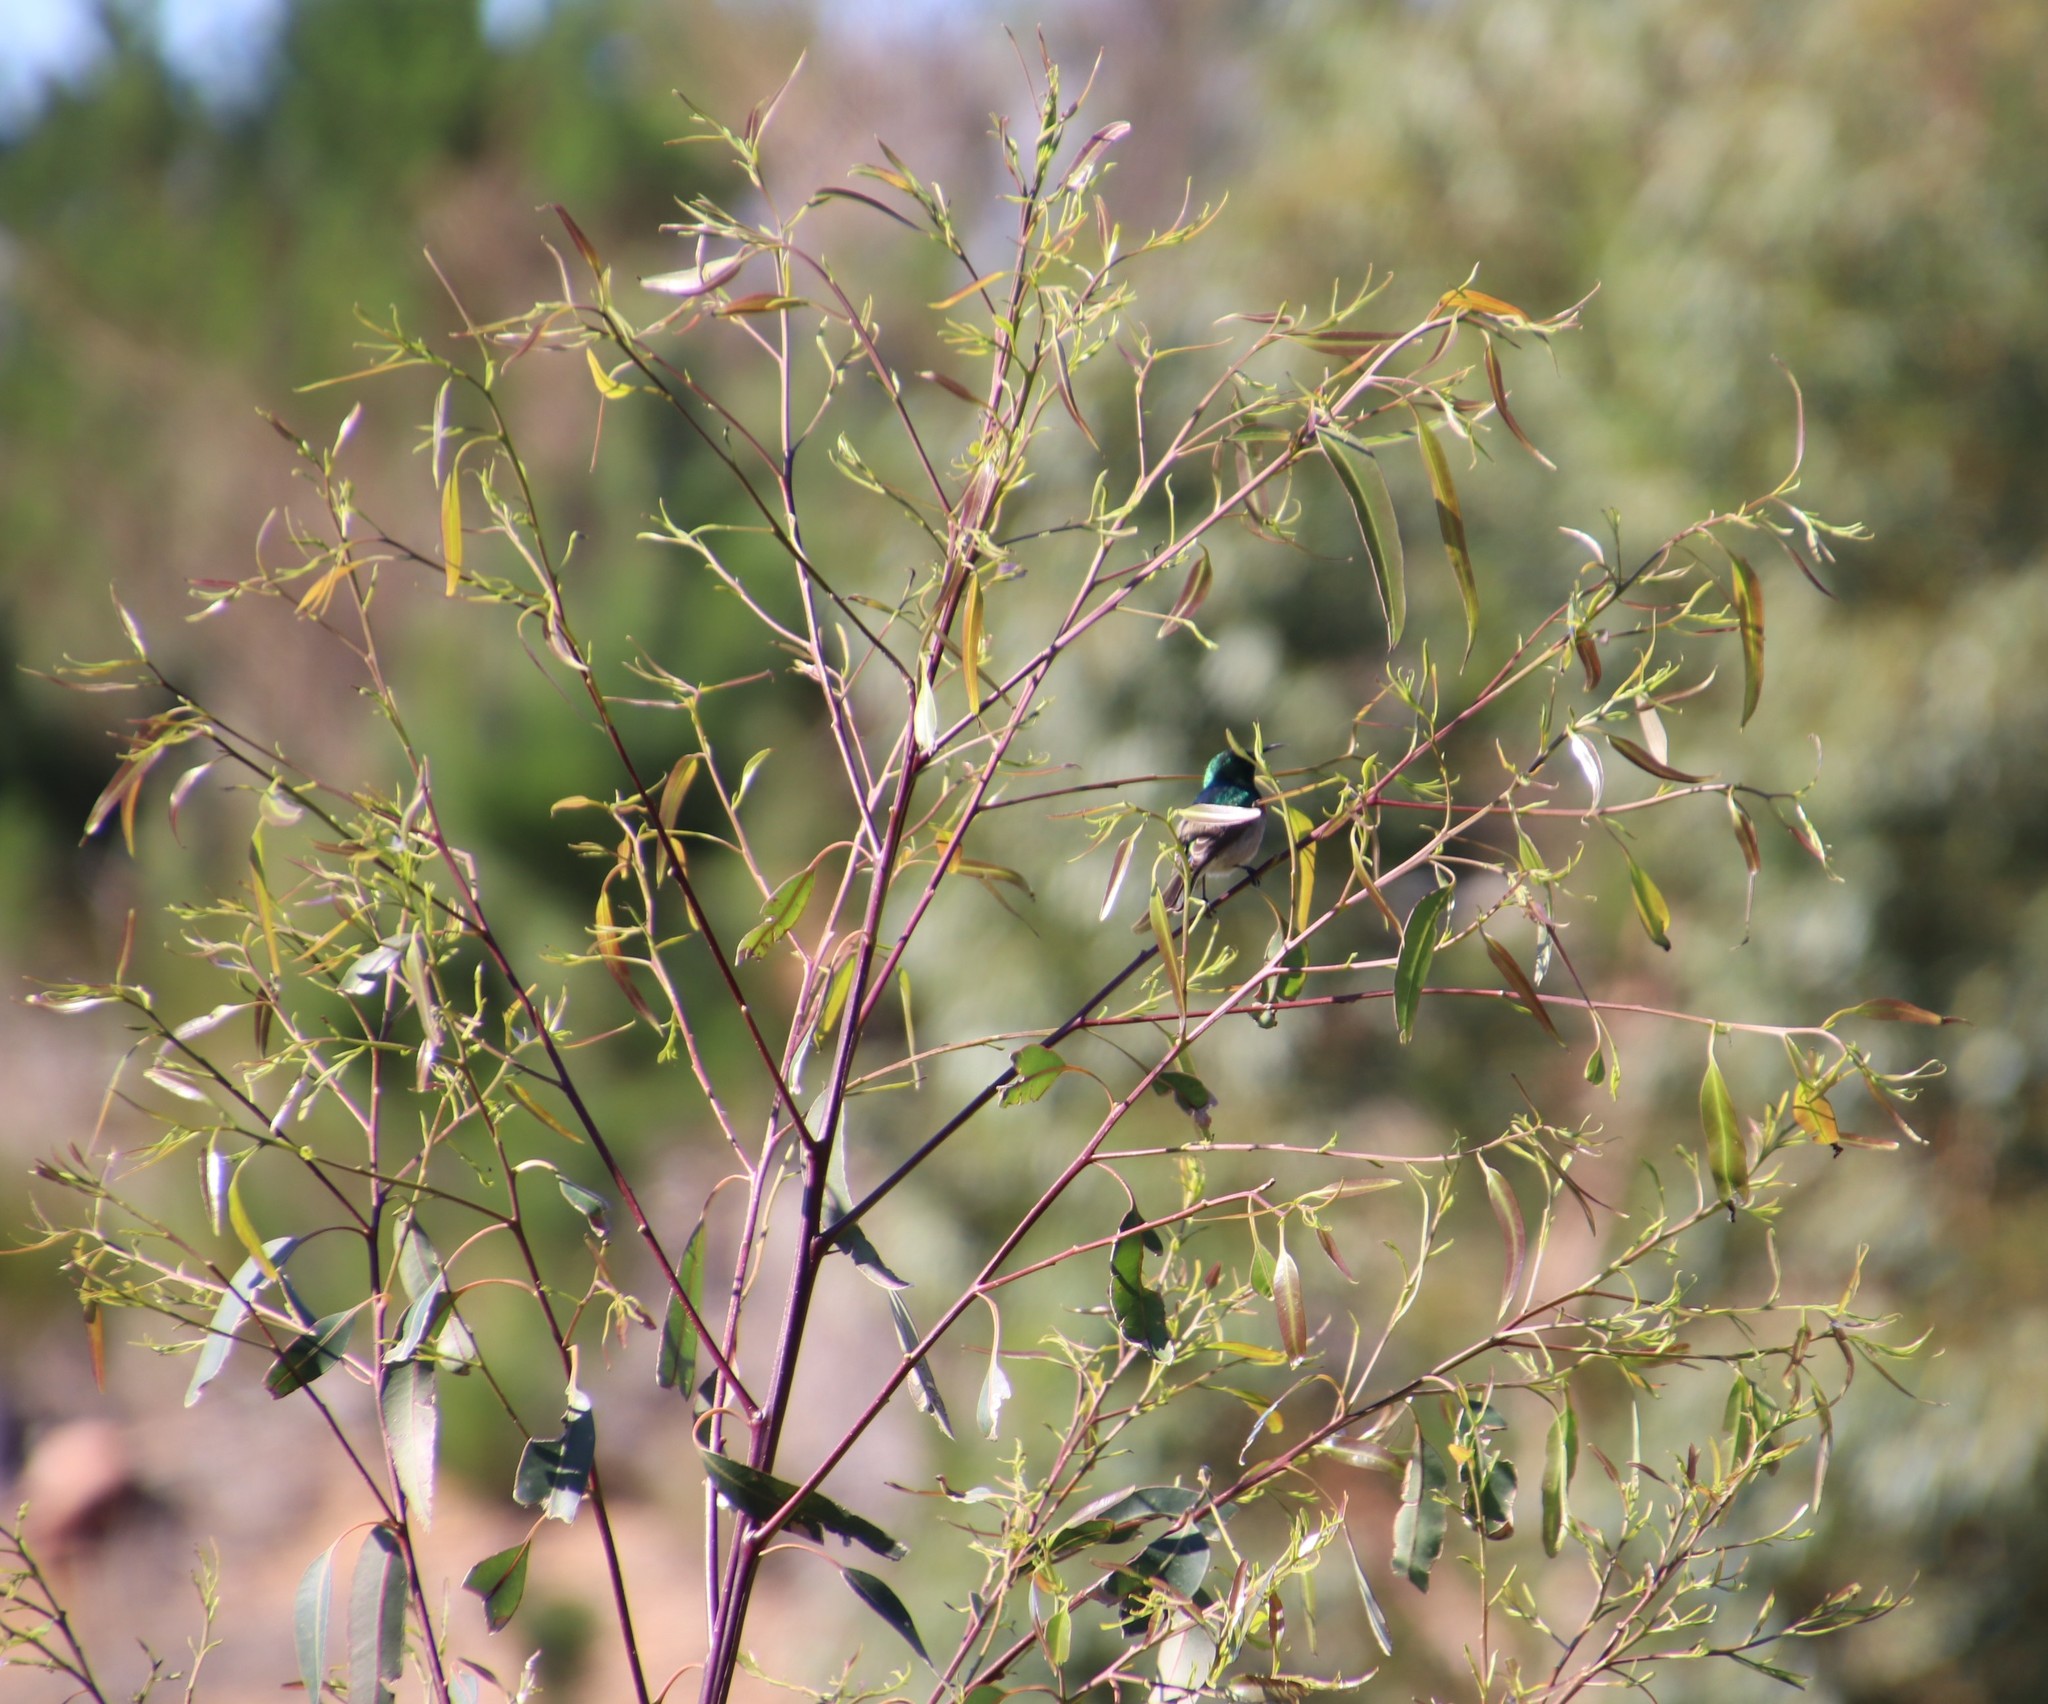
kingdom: Animalia
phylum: Chordata
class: Aves
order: Passeriformes
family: Nectariniidae
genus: Cinnyris
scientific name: Cinnyris chalybeus
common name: Southern double-collared sunbird
